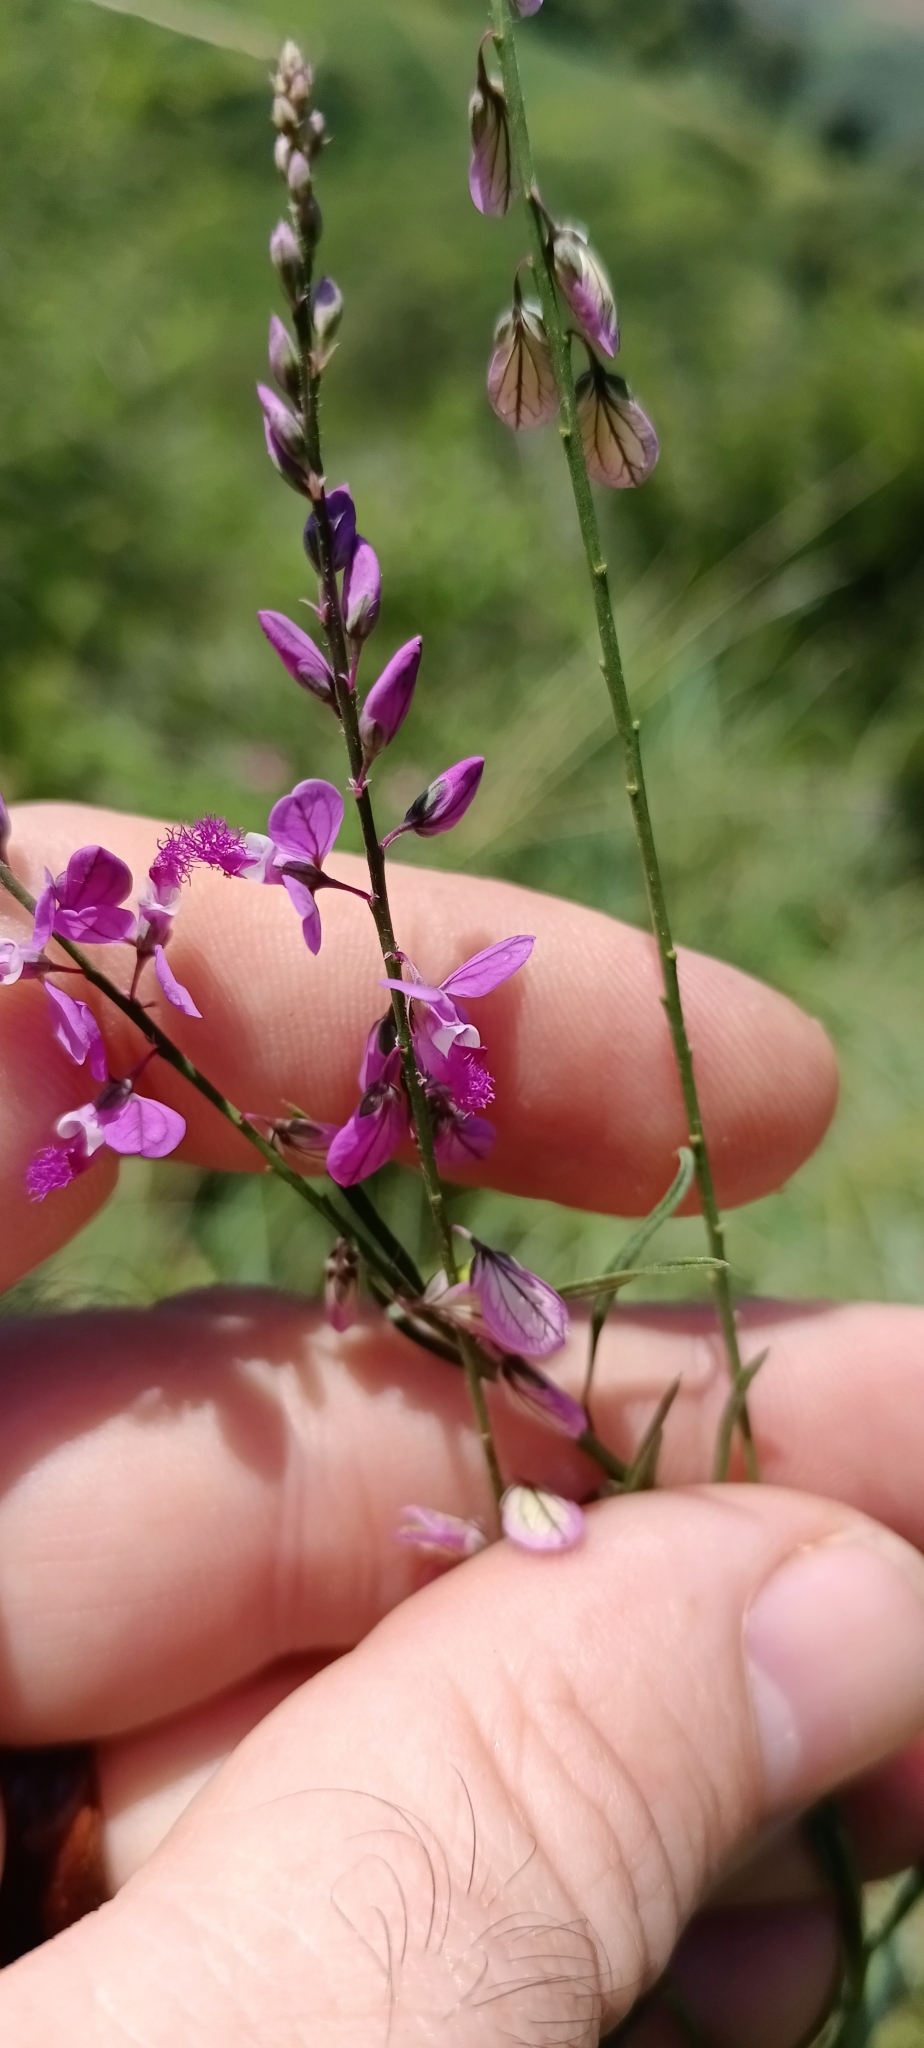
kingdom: Plantae
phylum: Tracheophyta
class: Magnoliopsida
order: Fabales
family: Polygalaceae
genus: Polygala
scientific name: Polygala hottentotta
